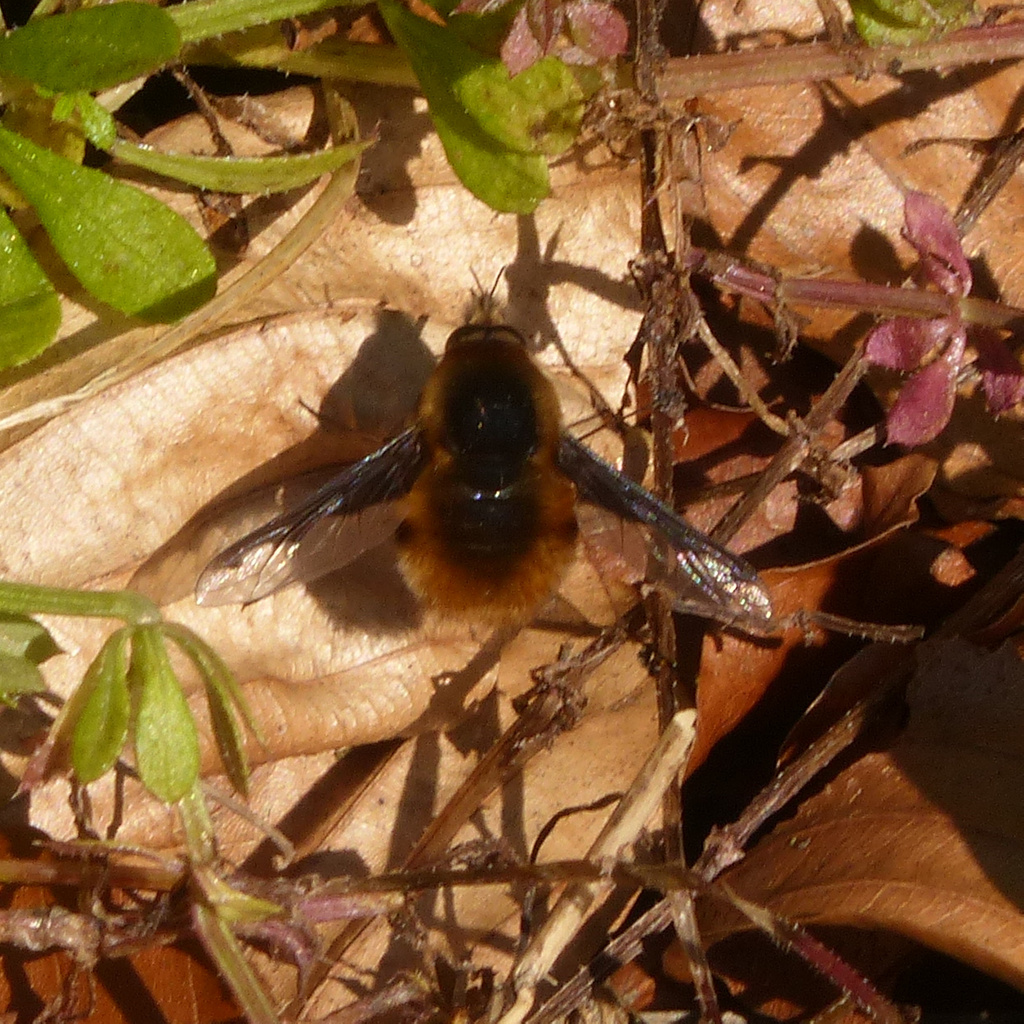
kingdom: Animalia
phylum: Arthropoda
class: Insecta
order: Diptera
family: Bombyliidae
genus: Bombylius
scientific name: Bombylius major
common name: Bee fly
